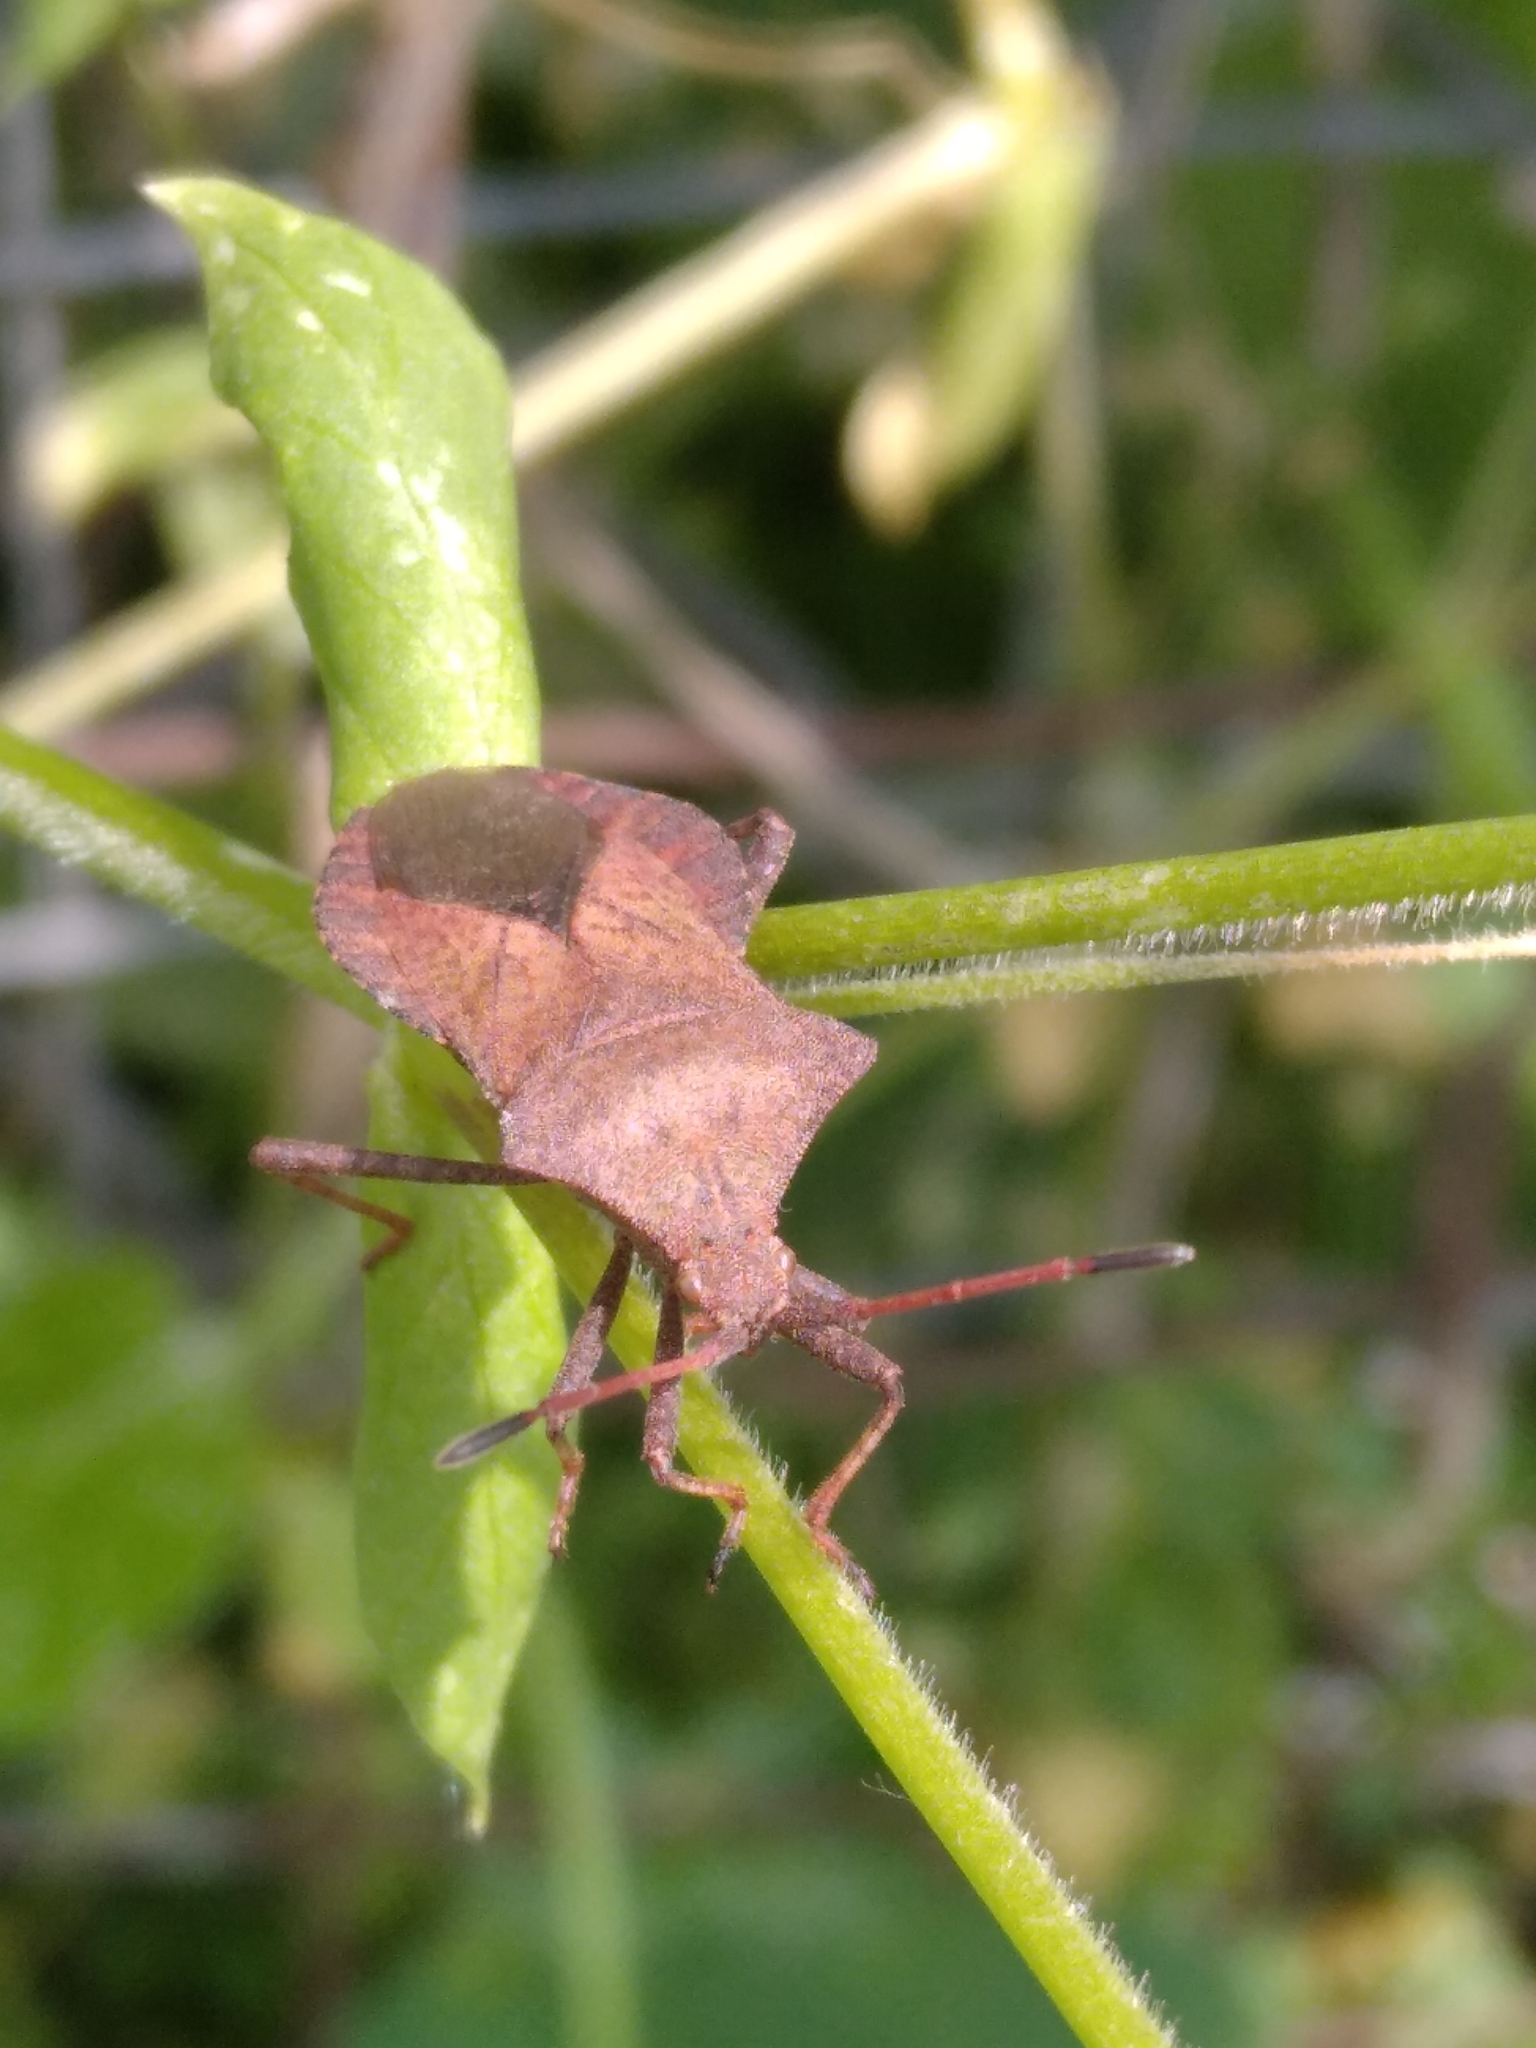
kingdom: Animalia
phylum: Arthropoda
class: Insecta
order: Hemiptera
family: Coreidae
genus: Coreus
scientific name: Coreus marginatus
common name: Dock bug
